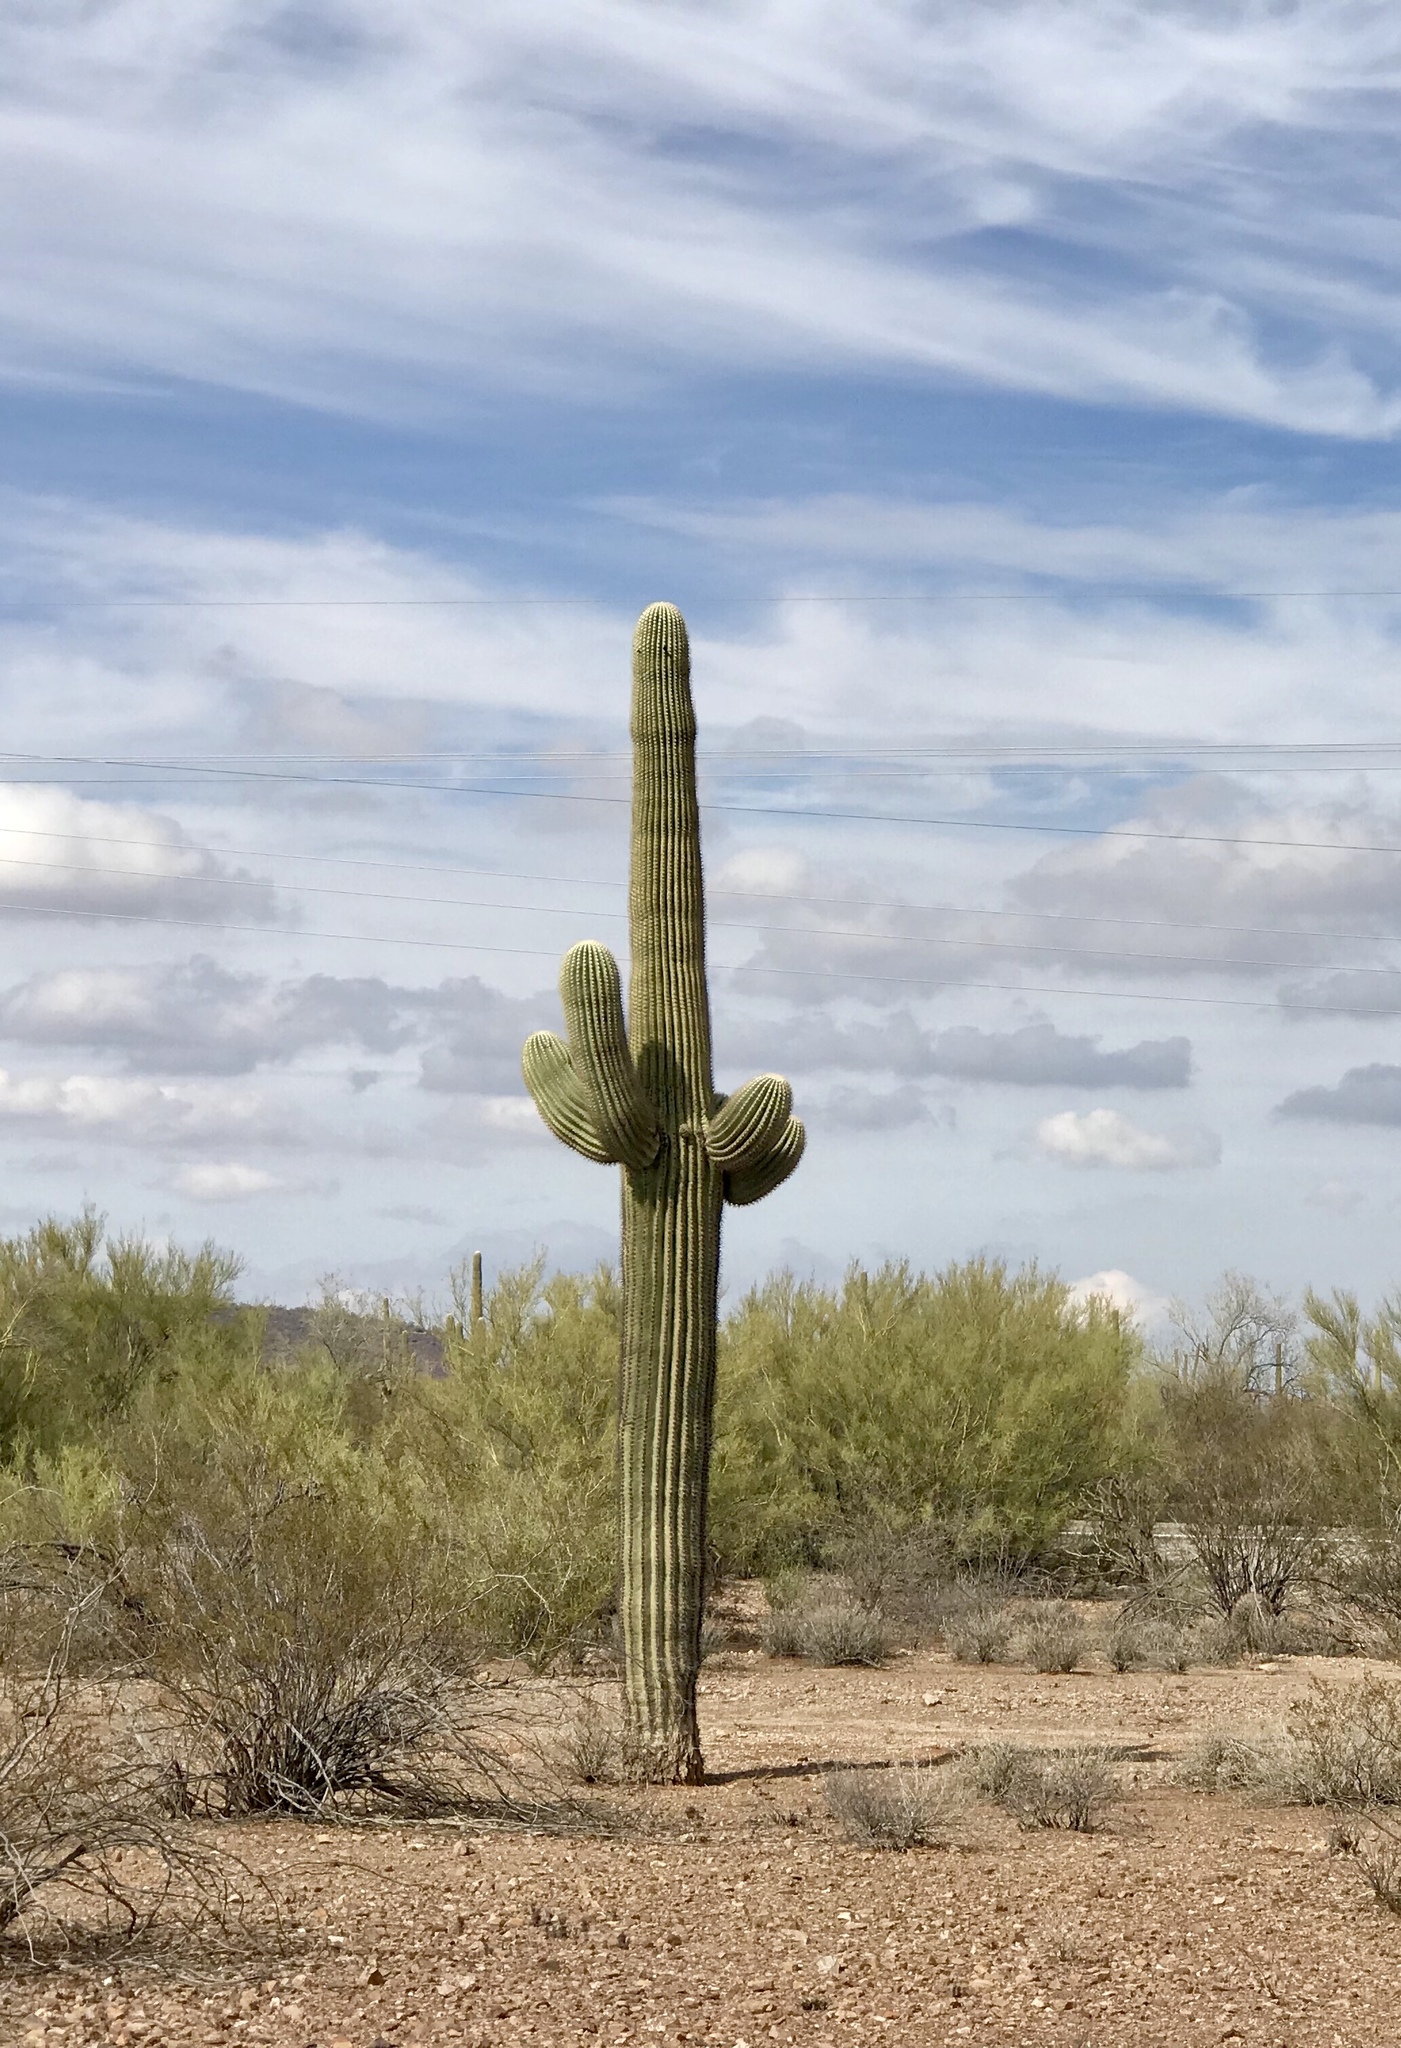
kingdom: Plantae
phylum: Tracheophyta
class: Magnoliopsida
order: Caryophyllales
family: Cactaceae
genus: Carnegiea
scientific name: Carnegiea gigantea
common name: Saguaro
